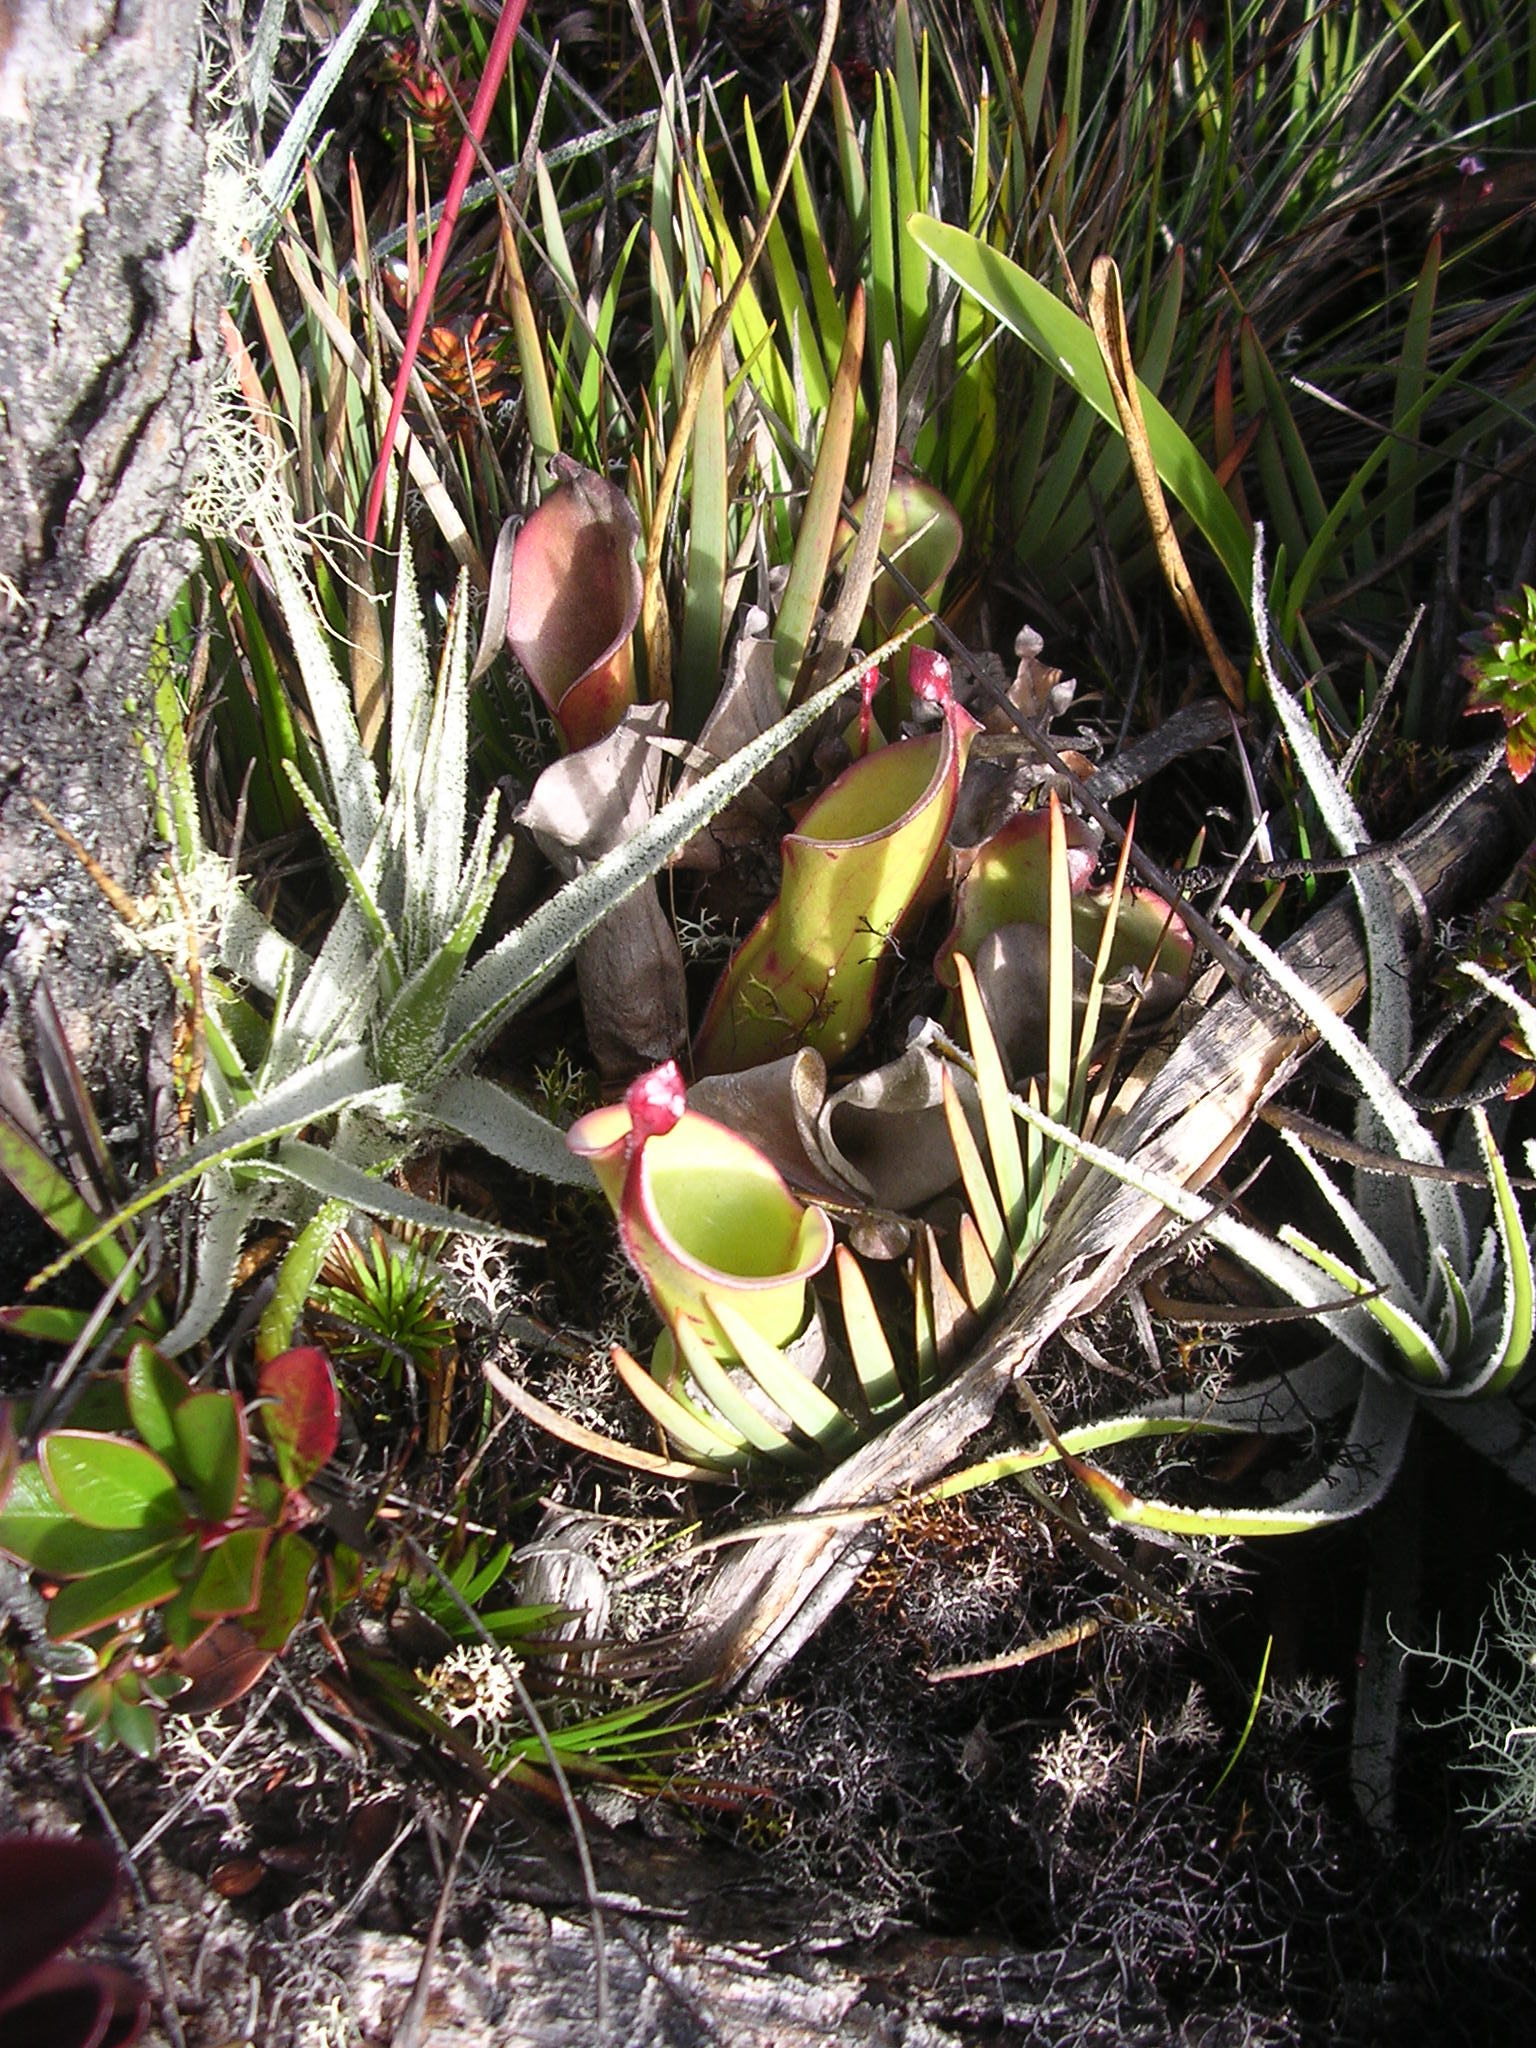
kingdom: Plantae
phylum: Tracheophyta
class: Magnoliopsida
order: Ericales
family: Sarraceniaceae
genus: Heliamphora
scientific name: Heliamphora nutans
